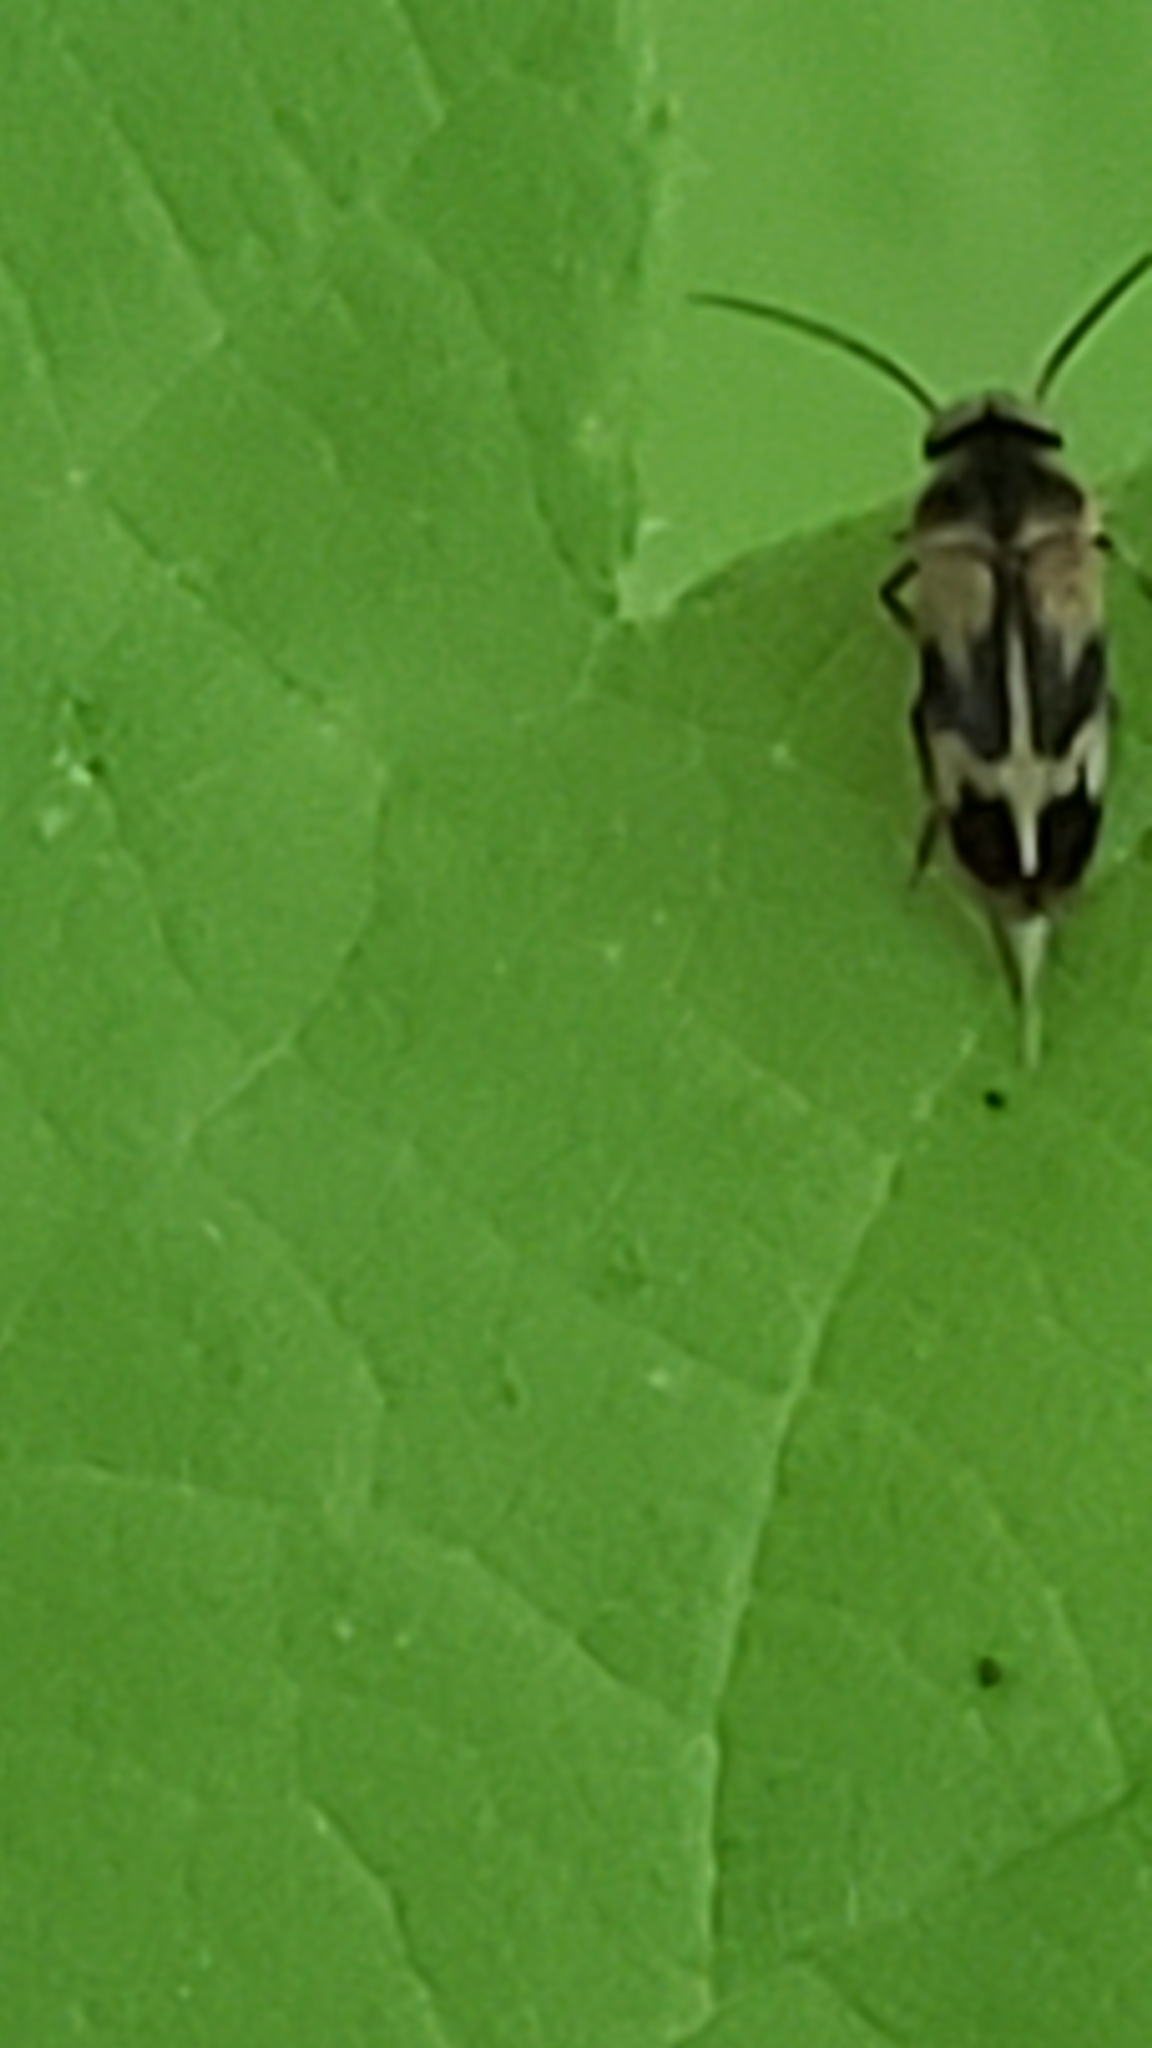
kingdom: Animalia
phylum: Arthropoda
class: Insecta
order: Coleoptera
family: Mordellidae
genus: Falsomordellistena
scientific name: Falsomordellistena discolor
